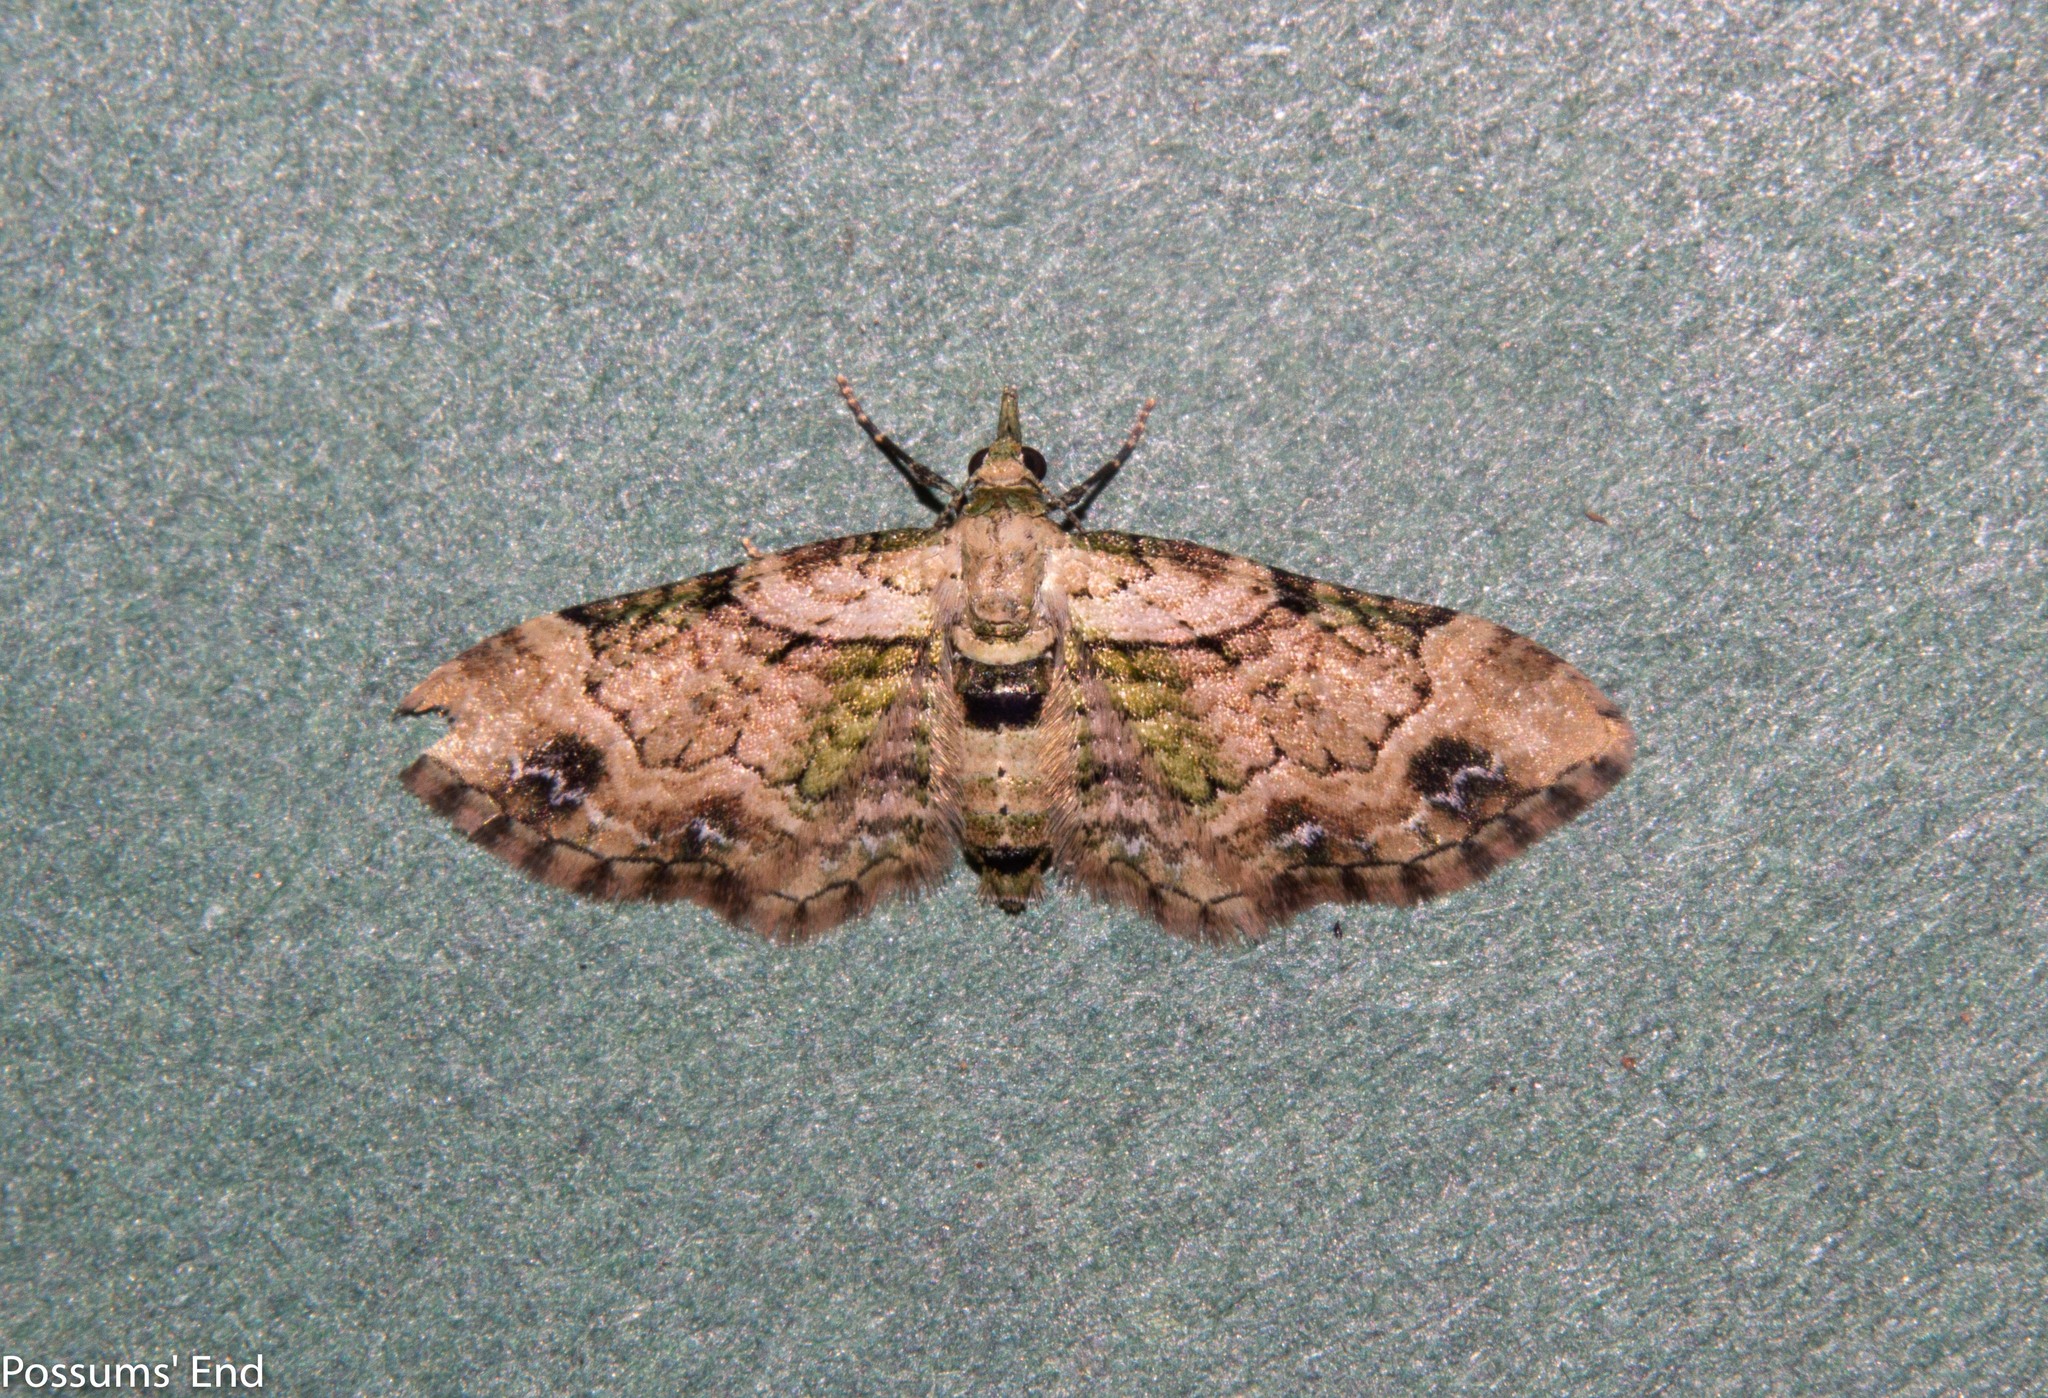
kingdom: Animalia
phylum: Arthropoda
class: Insecta
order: Lepidoptera
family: Geometridae
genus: Chloroclystis
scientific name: Chloroclystis
